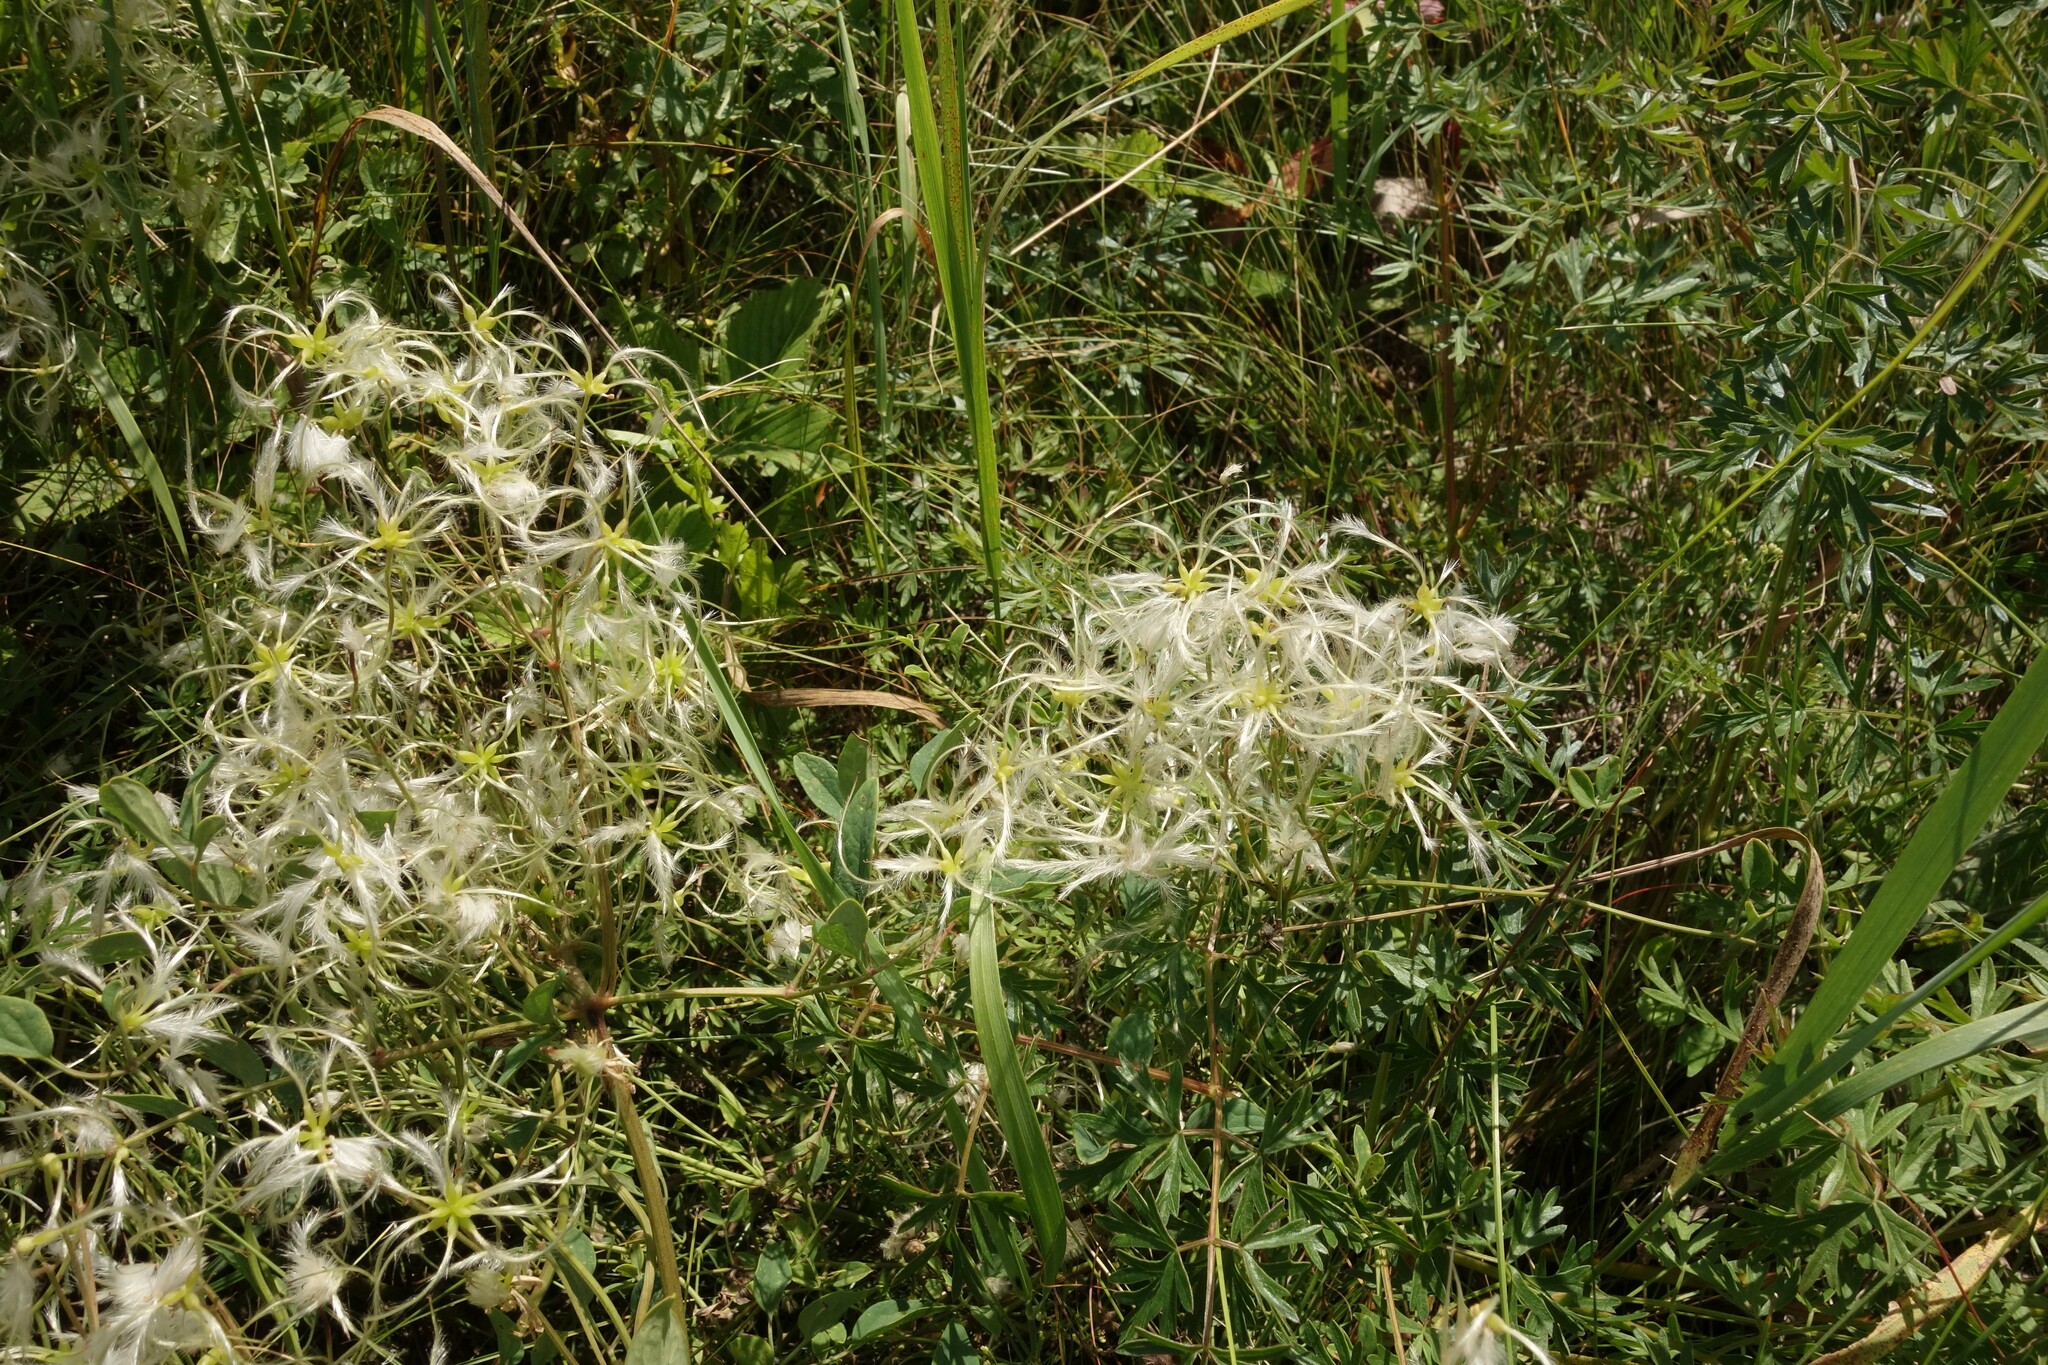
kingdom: Plantae
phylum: Tracheophyta
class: Magnoliopsida
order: Ranunculales
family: Ranunculaceae
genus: Clematis
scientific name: Clematis lathyrifolia
